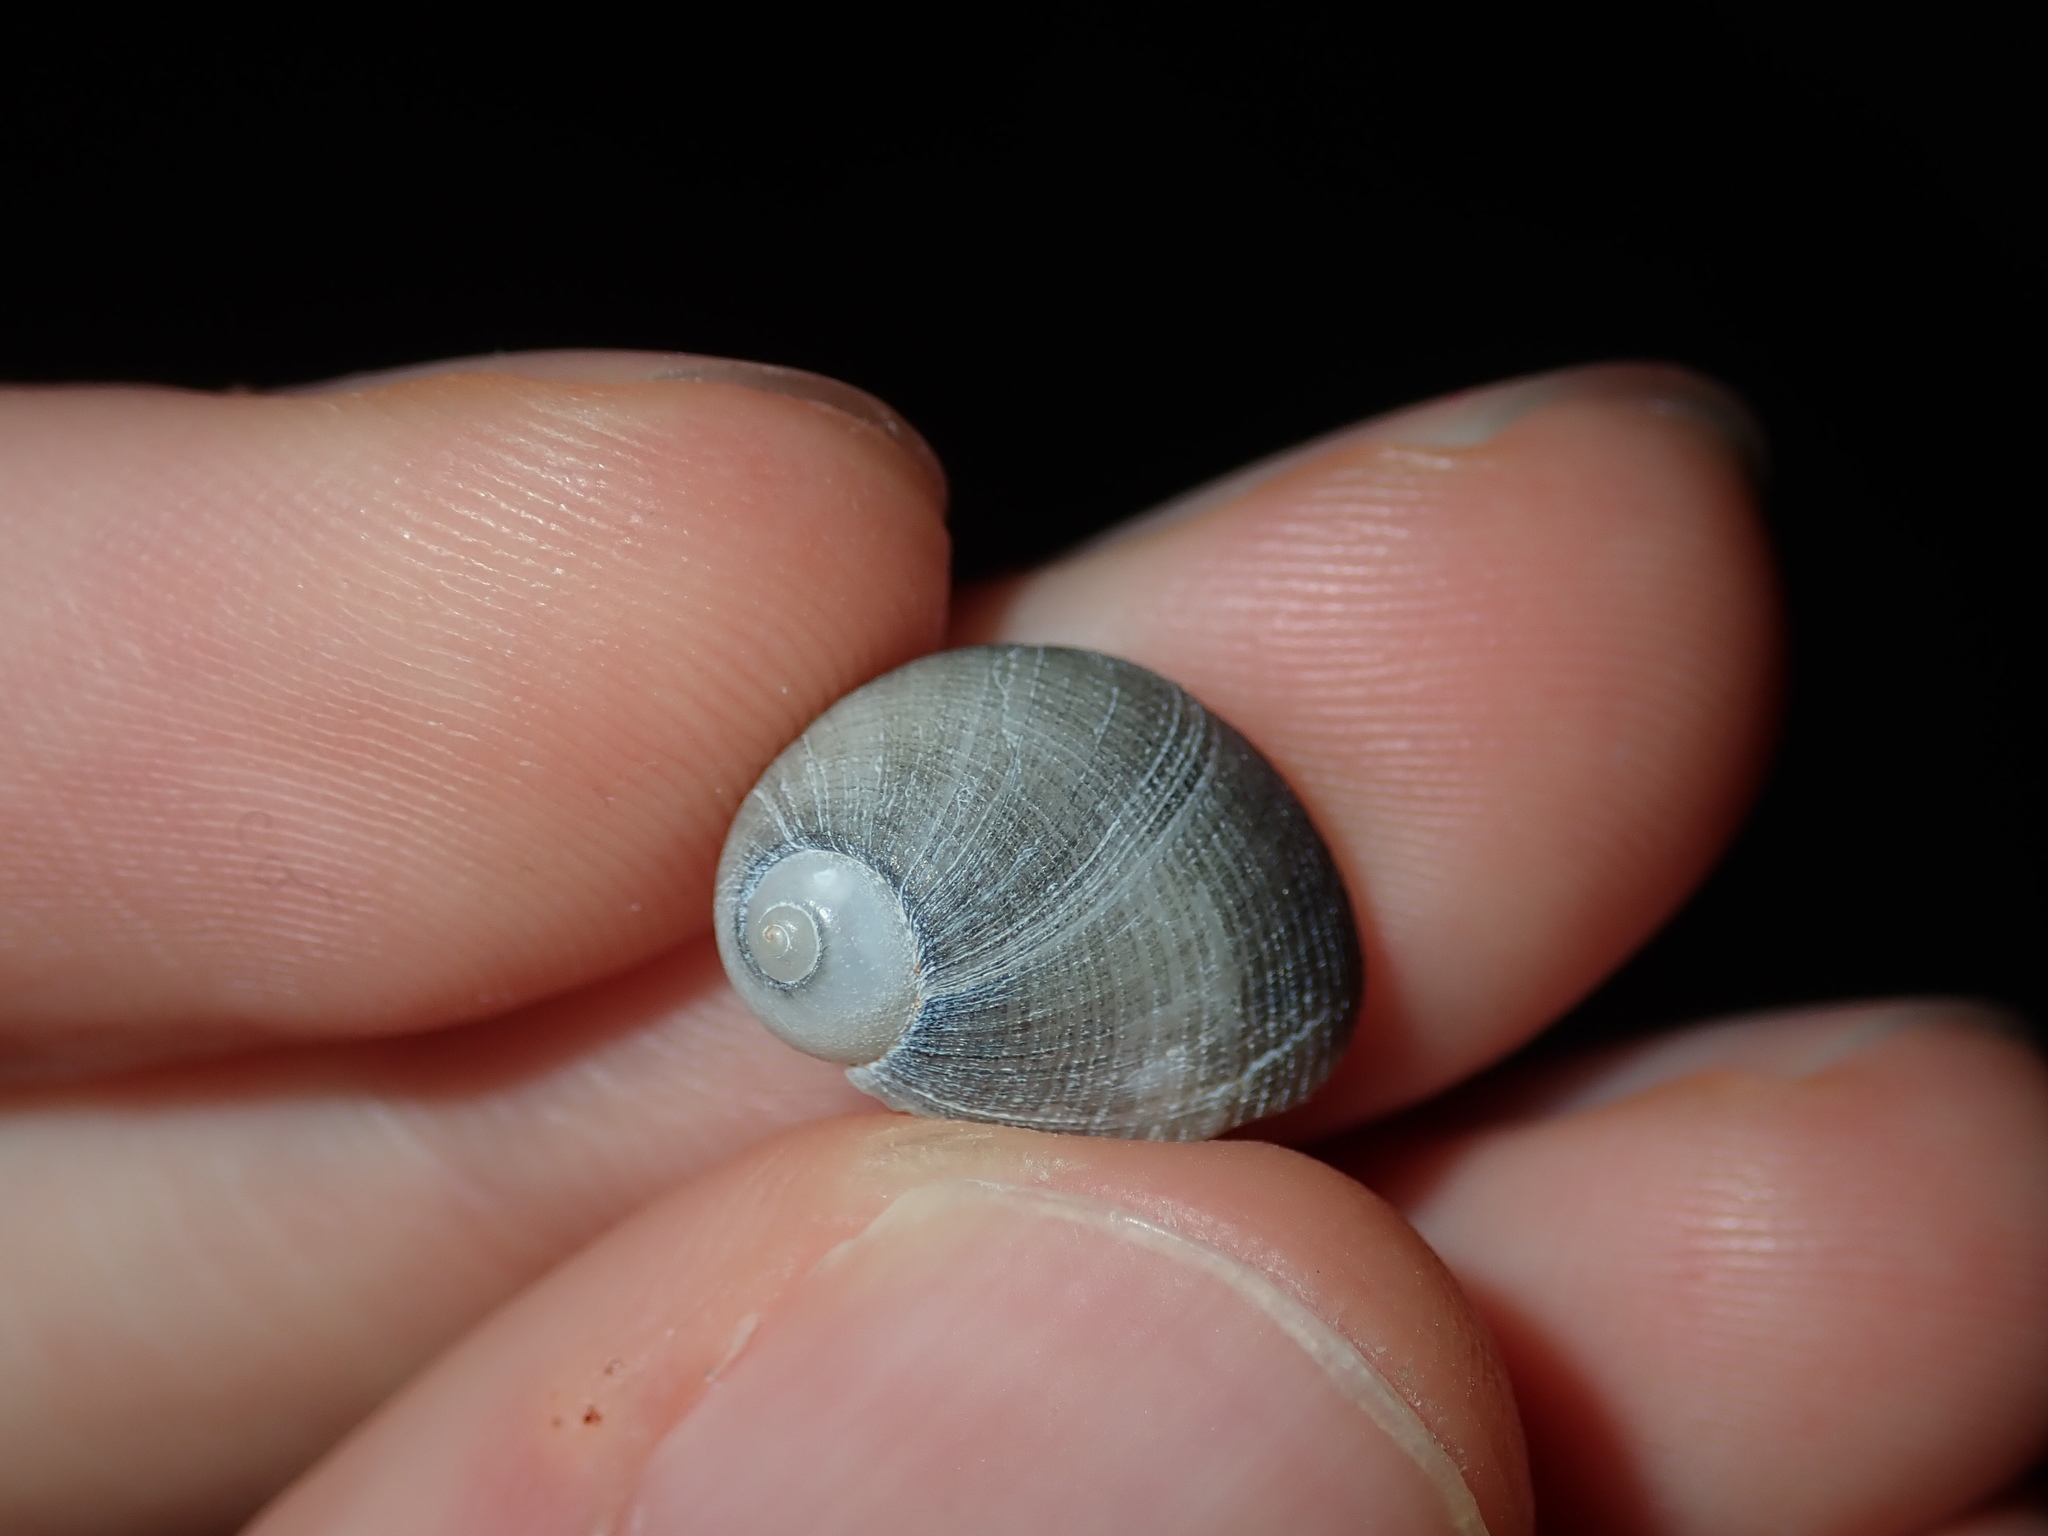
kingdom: Animalia
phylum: Mollusca
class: Gastropoda
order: Littorinimorpha
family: Naticidae
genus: Eunaticina
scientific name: Eunaticina linnaeana
